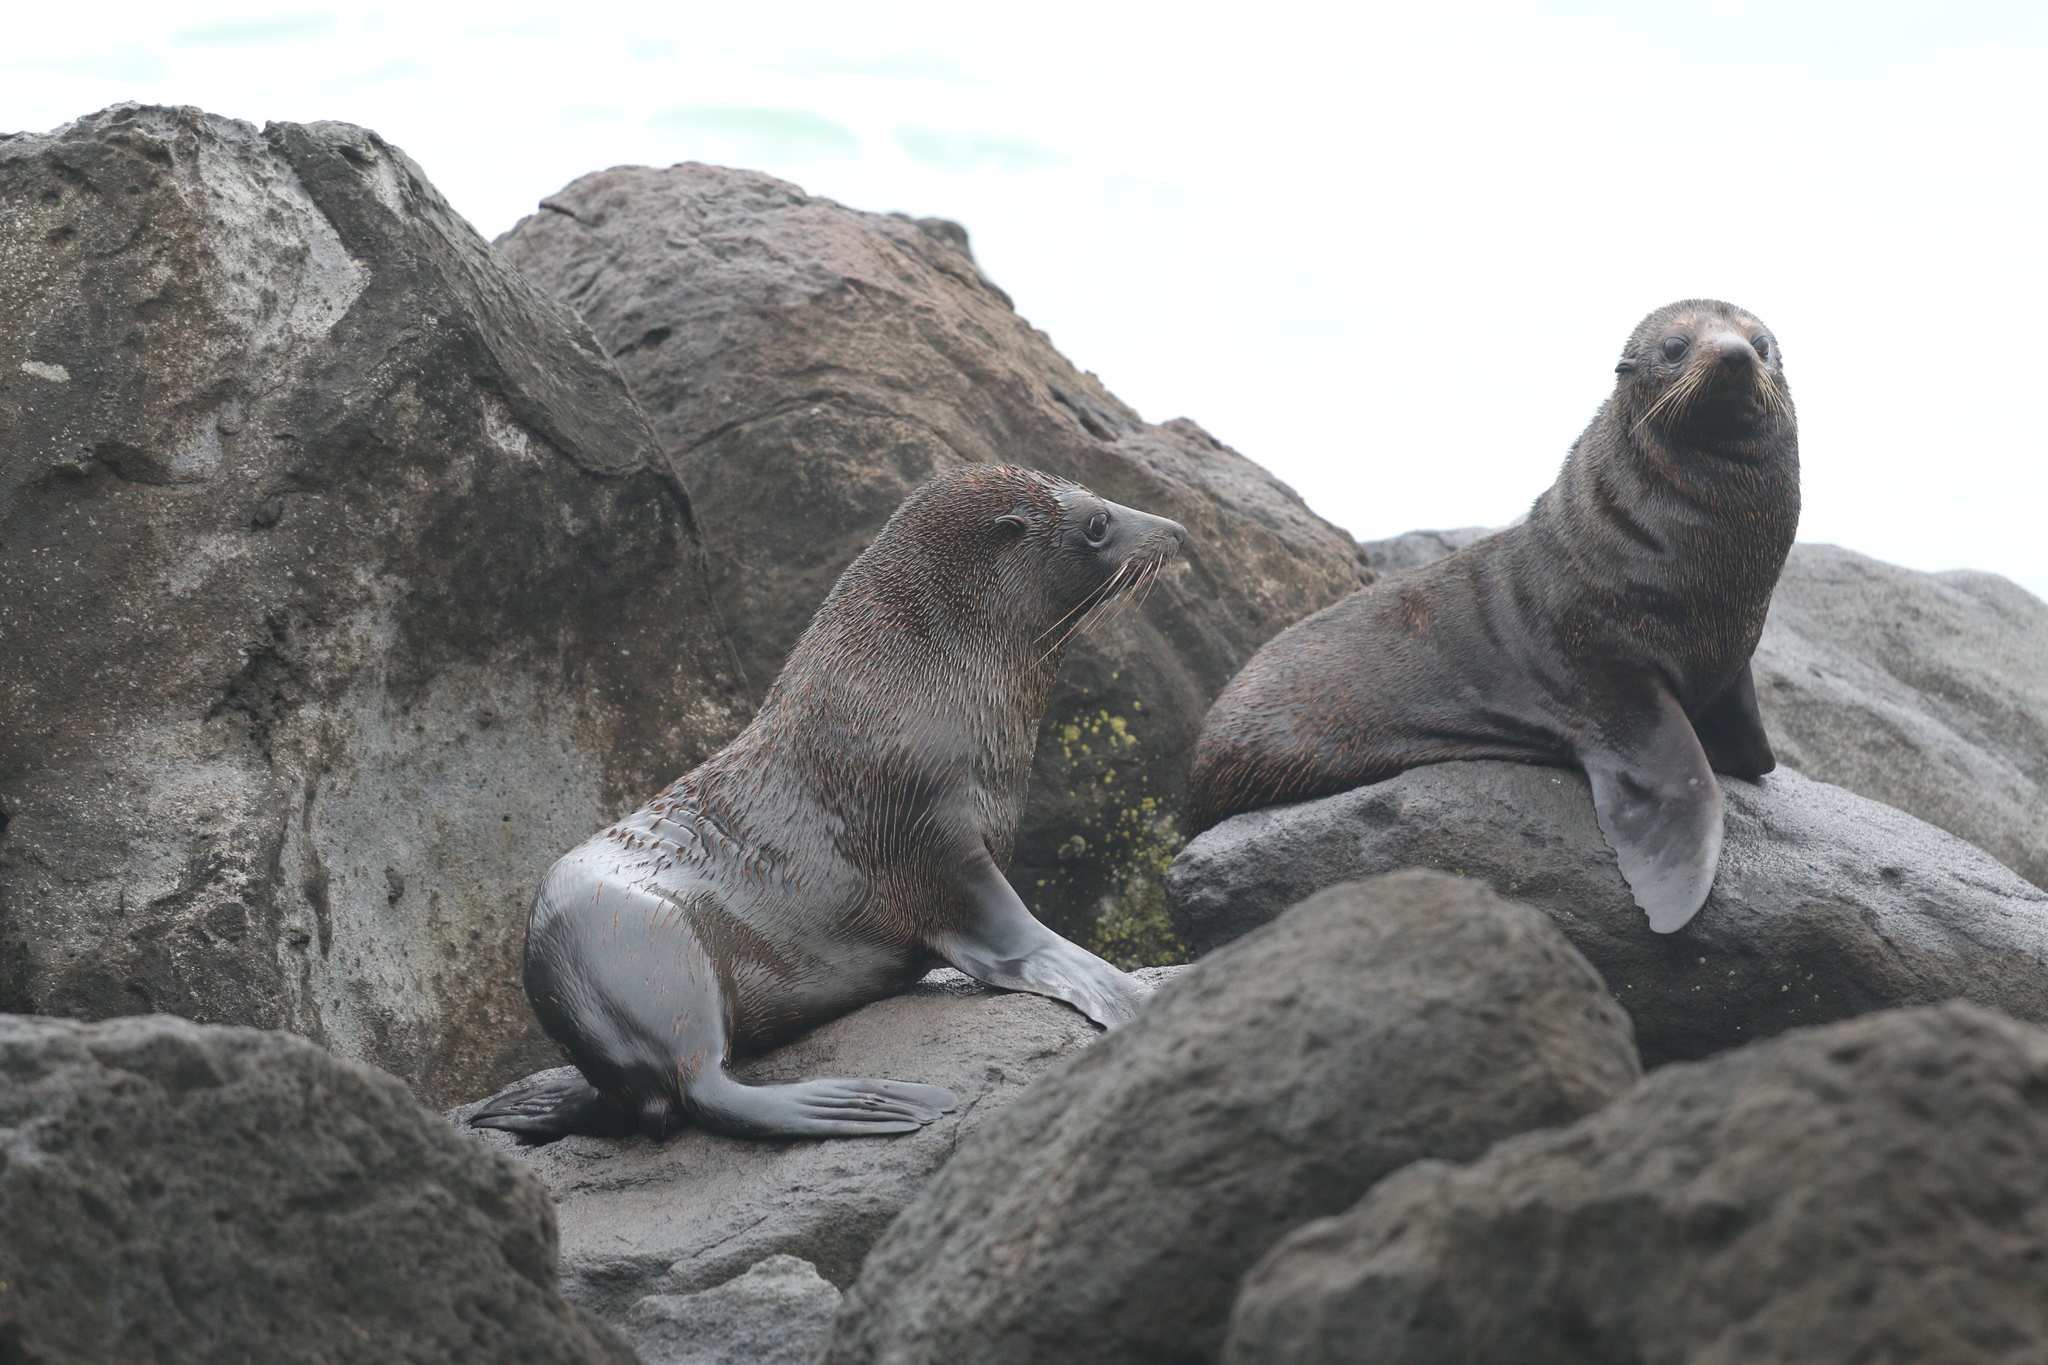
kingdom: Animalia
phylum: Chordata
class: Mammalia
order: Carnivora
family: Otariidae
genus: Arctocephalus
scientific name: Arctocephalus forsteri
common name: New zealand fur seal
